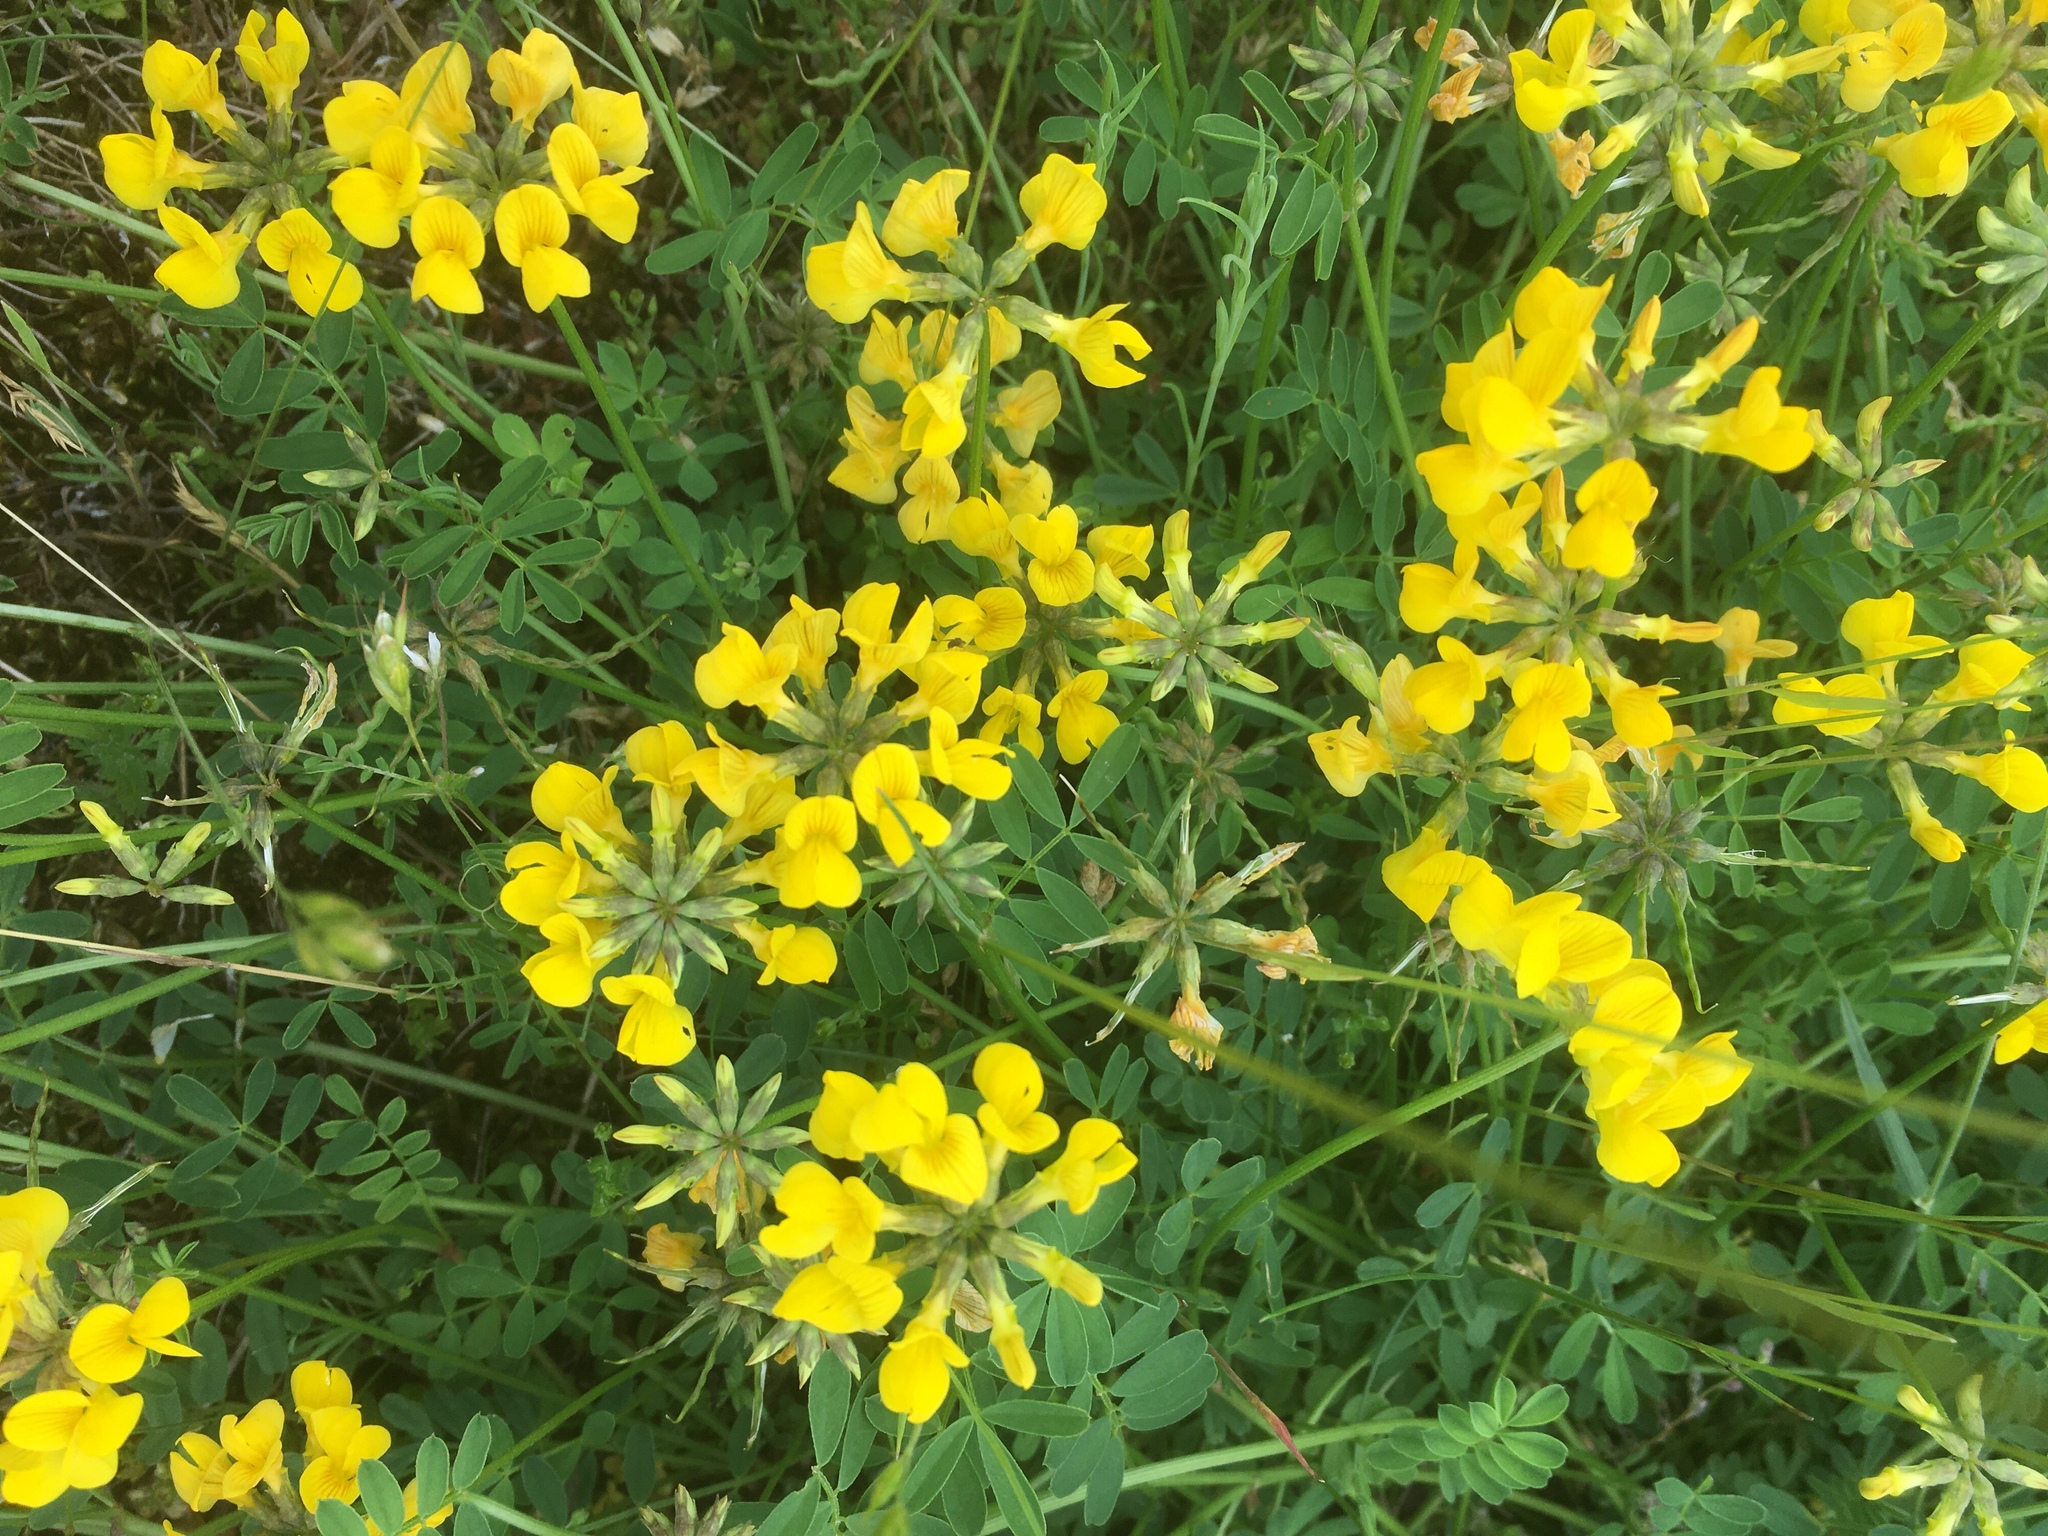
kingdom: Plantae
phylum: Tracheophyta
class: Magnoliopsida
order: Fabales
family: Fabaceae
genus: Hippocrepis
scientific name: Hippocrepis comosa
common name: Horseshoe vetch
